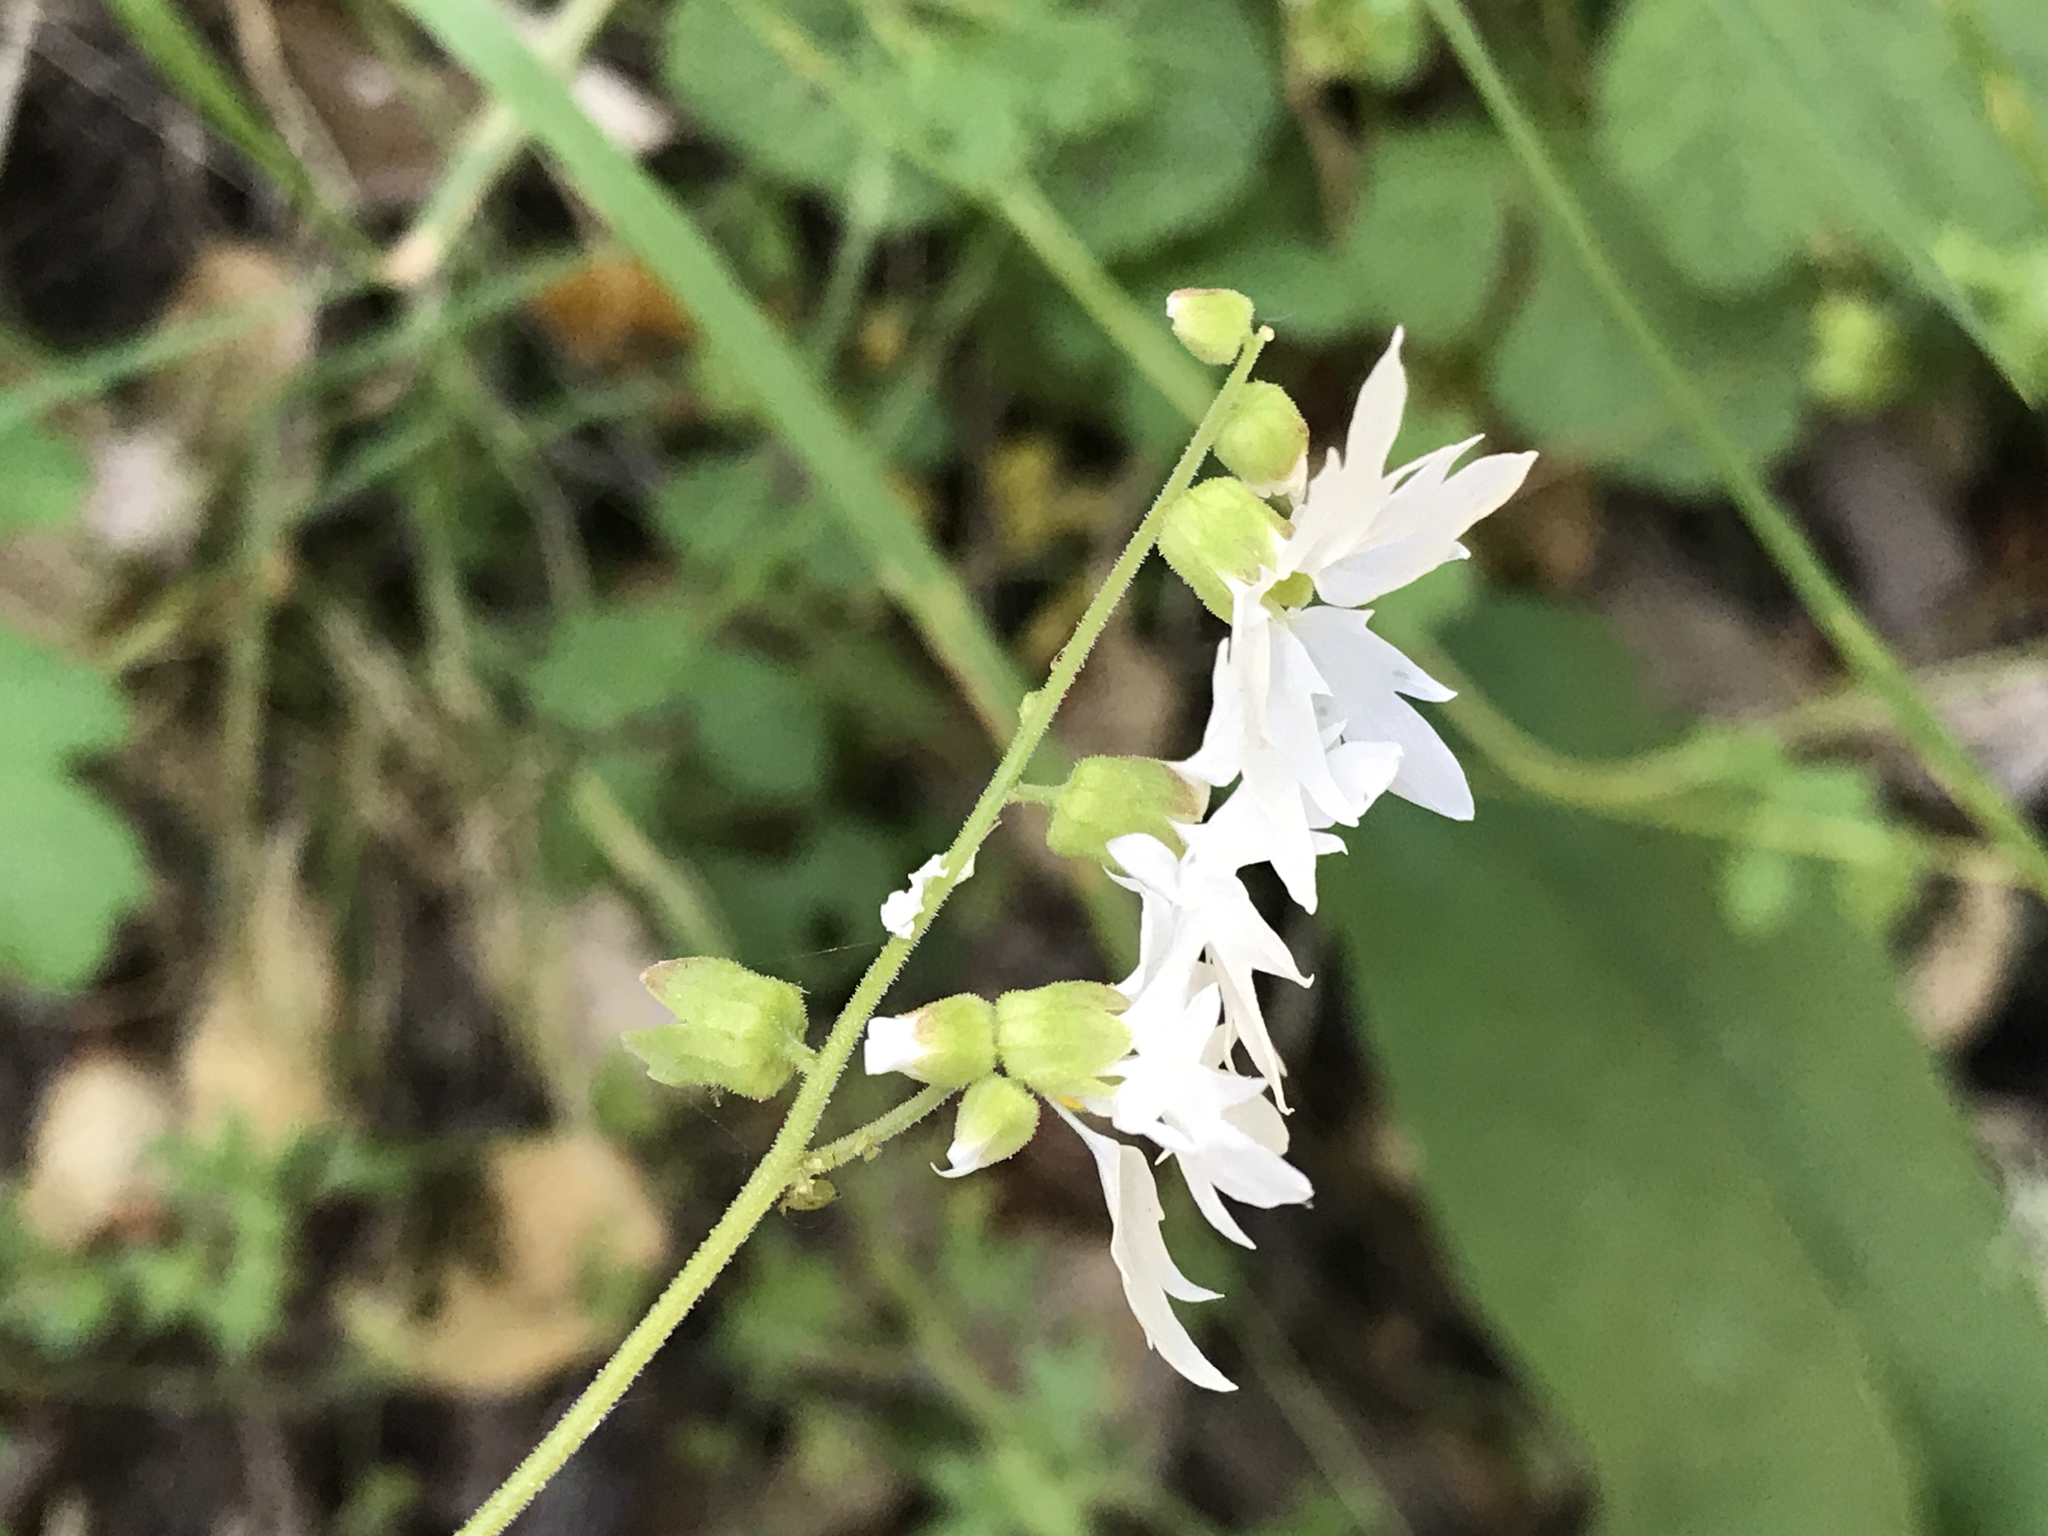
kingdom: Plantae
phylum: Tracheophyta
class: Magnoliopsida
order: Saxifragales
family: Saxifragaceae
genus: Lithophragma
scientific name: Lithophragma heterophyllum
